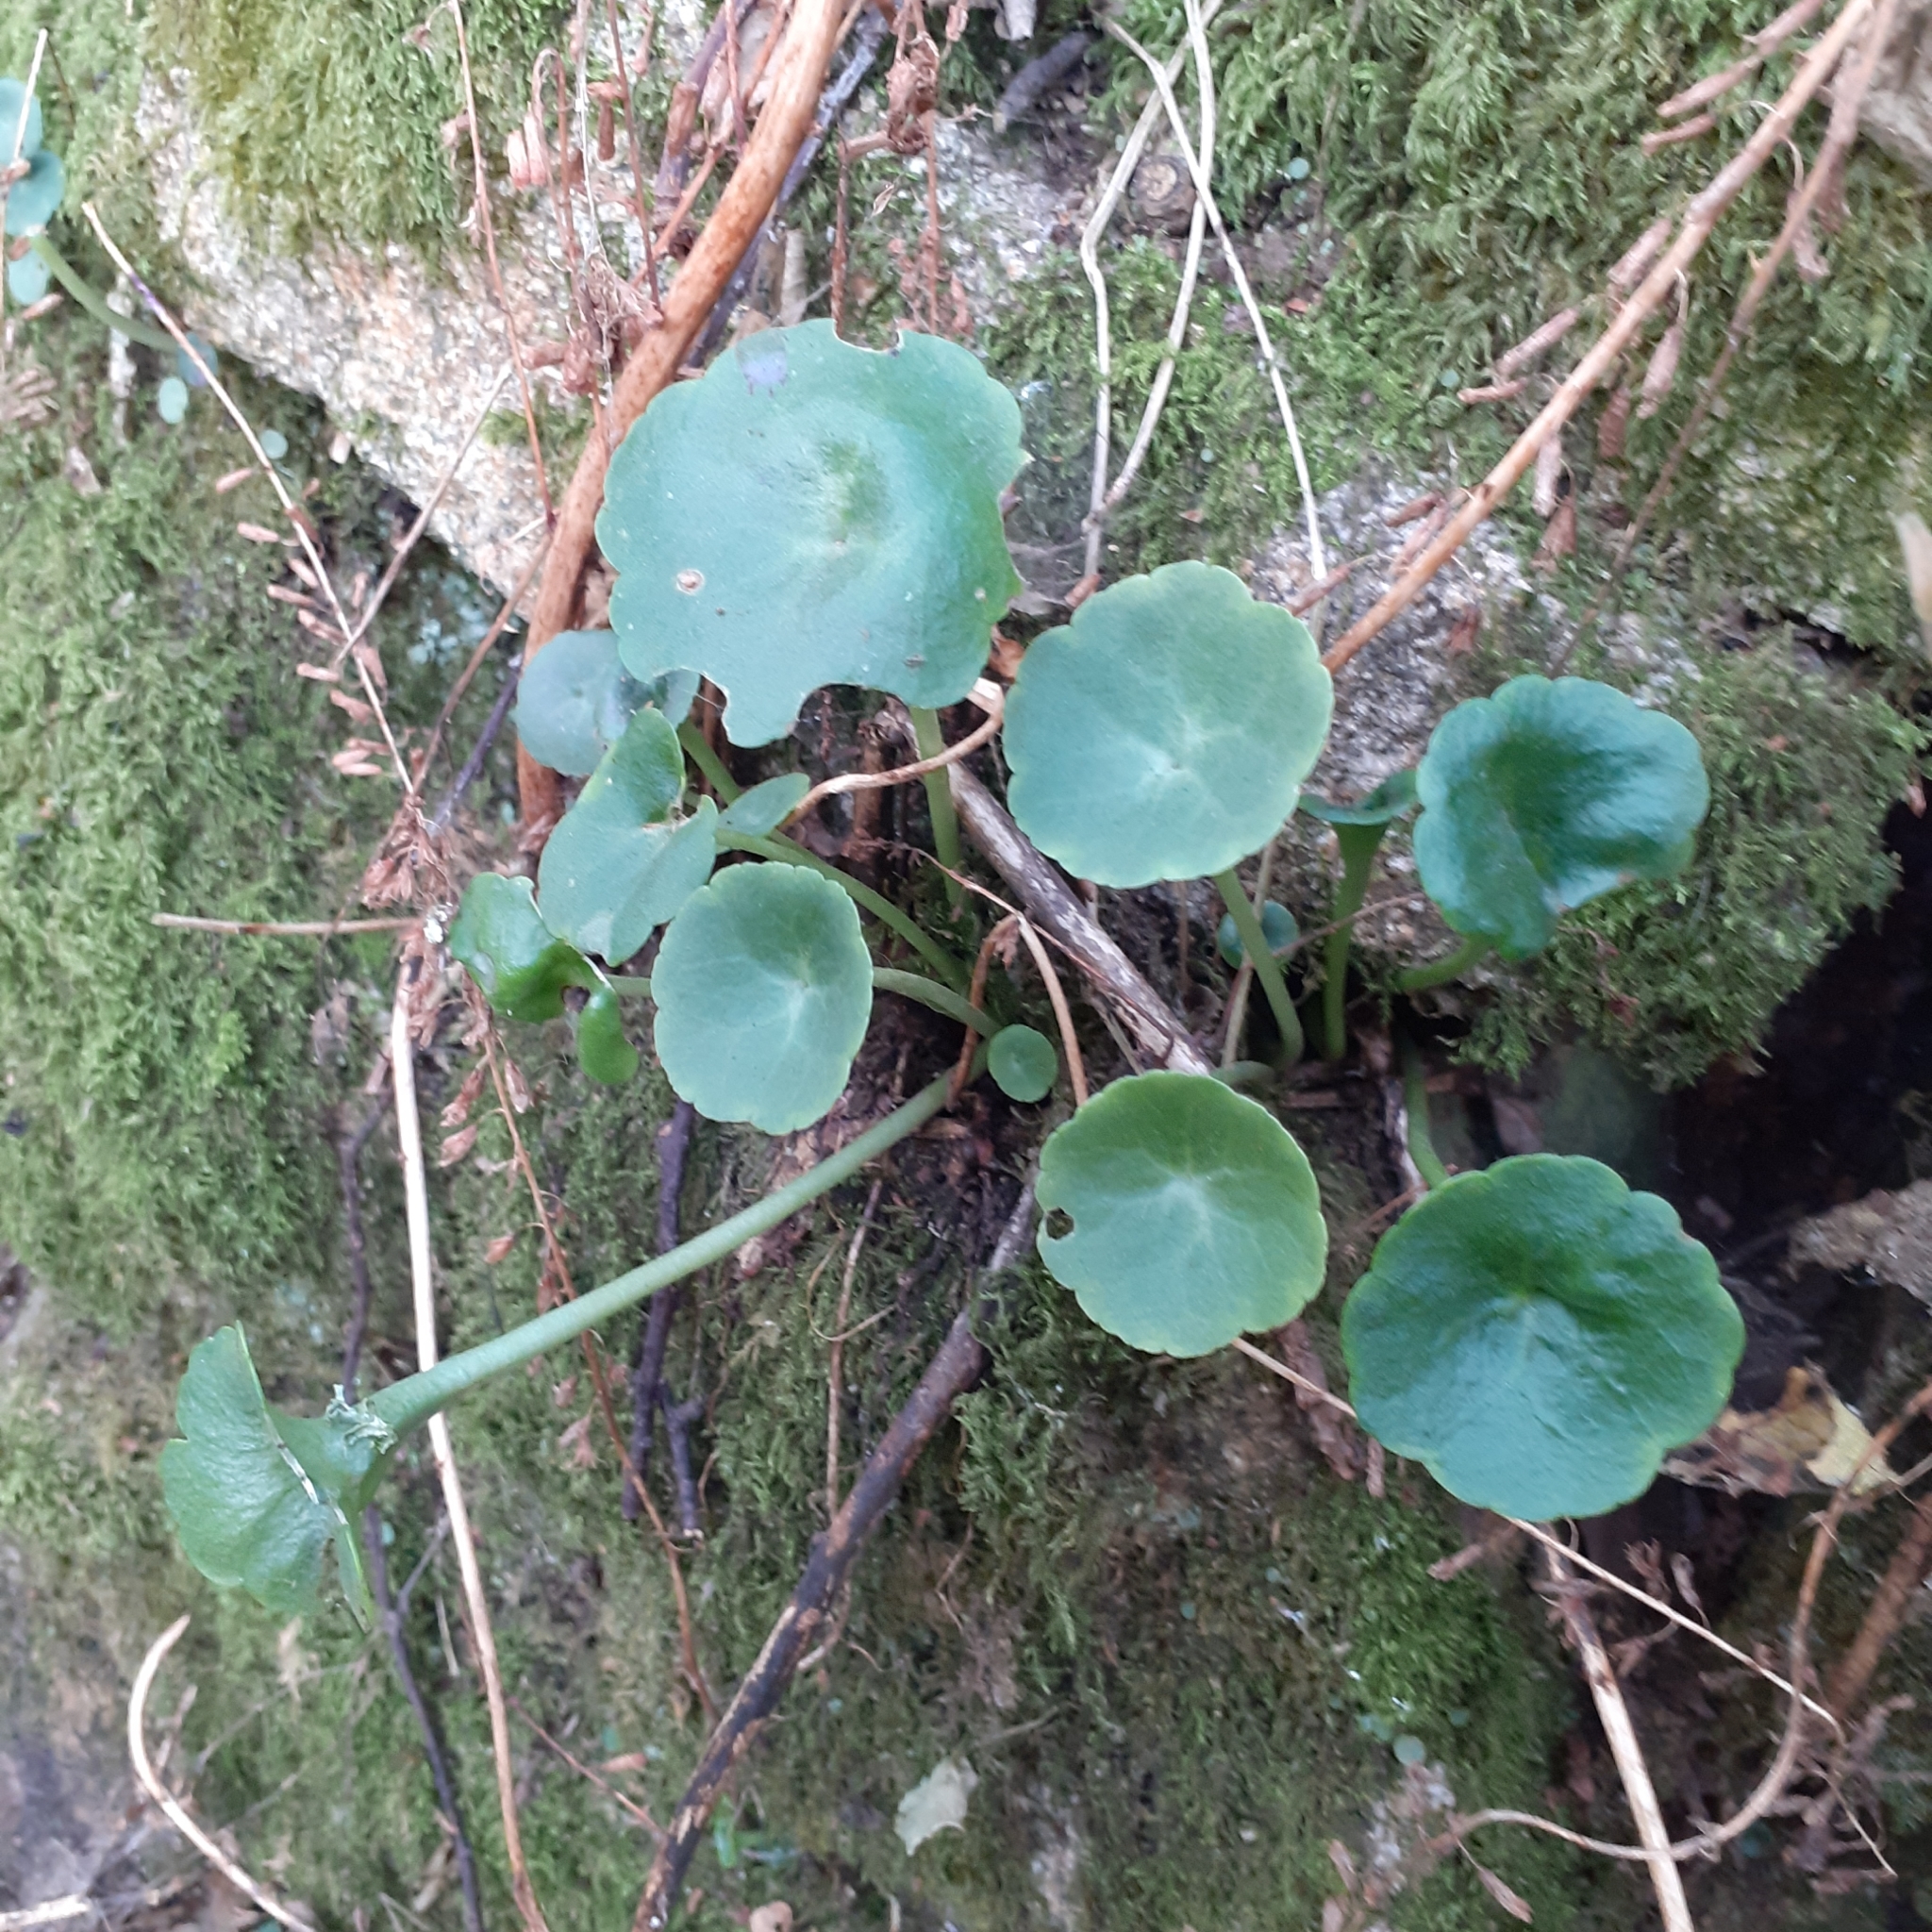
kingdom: Plantae
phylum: Tracheophyta
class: Magnoliopsida
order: Saxifragales
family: Crassulaceae
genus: Umbilicus
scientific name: Umbilicus rupestris
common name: Navelwort
